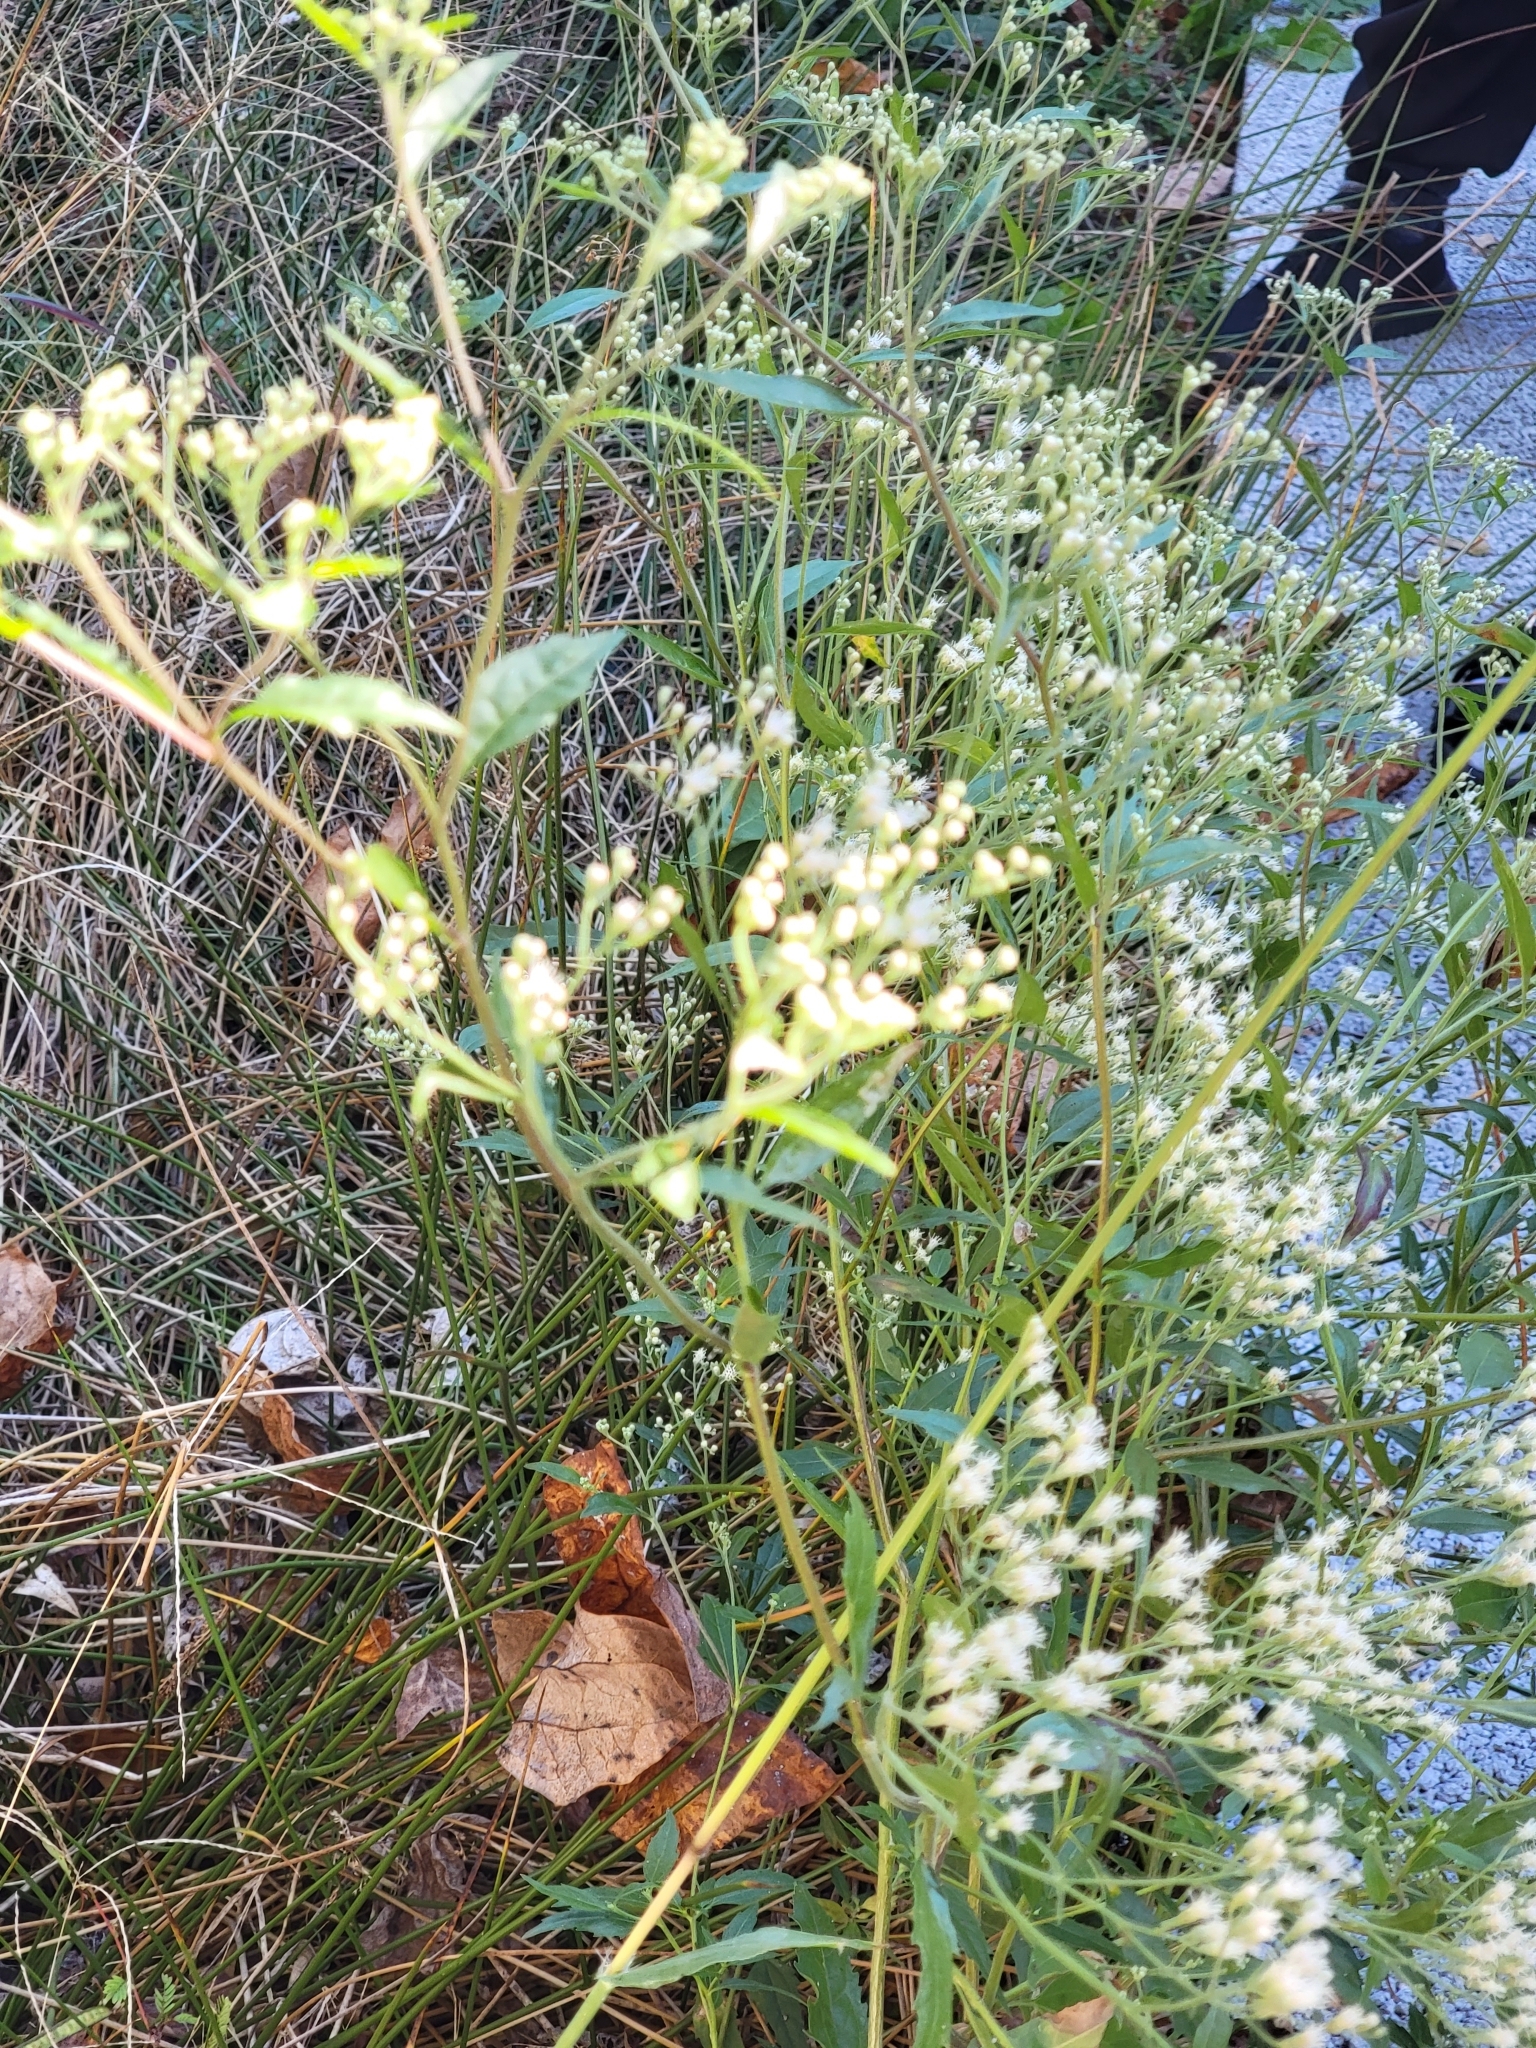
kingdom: Plantae
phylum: Tracheophyta
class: Magnoliopsida
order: Asterales
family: Asteraceae
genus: Eupatorium
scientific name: Eupatorium serotinum
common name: Late boneset
